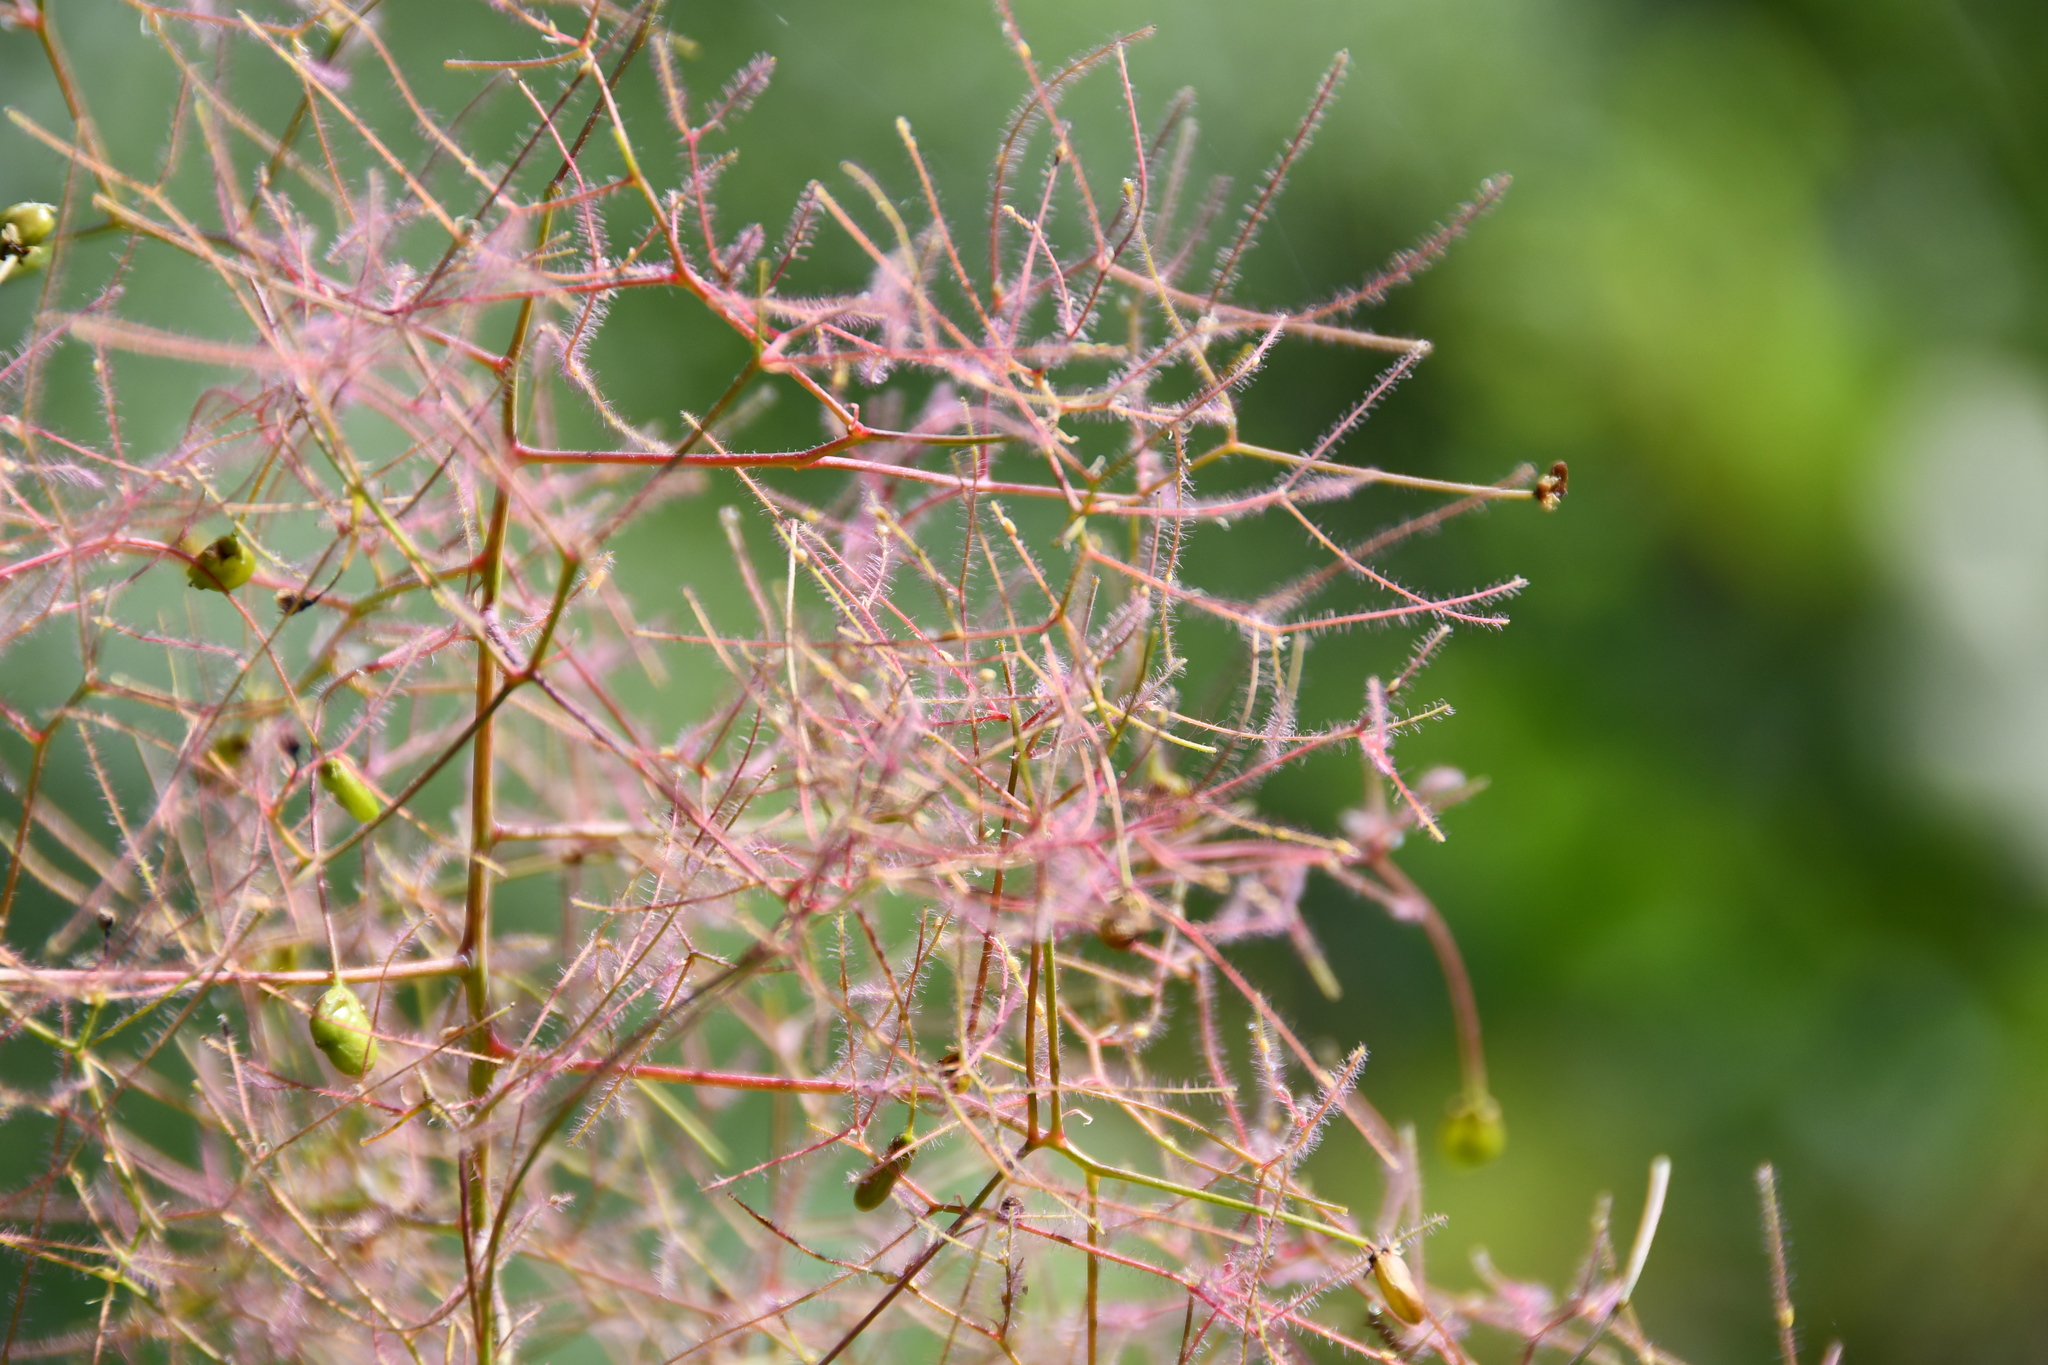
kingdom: Plantae
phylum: Tracheophyta
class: Magnoliopsida
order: Sapindales
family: Anacardiaceae
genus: Cotinus
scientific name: Cotinus coggygria
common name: Smoke-tree
